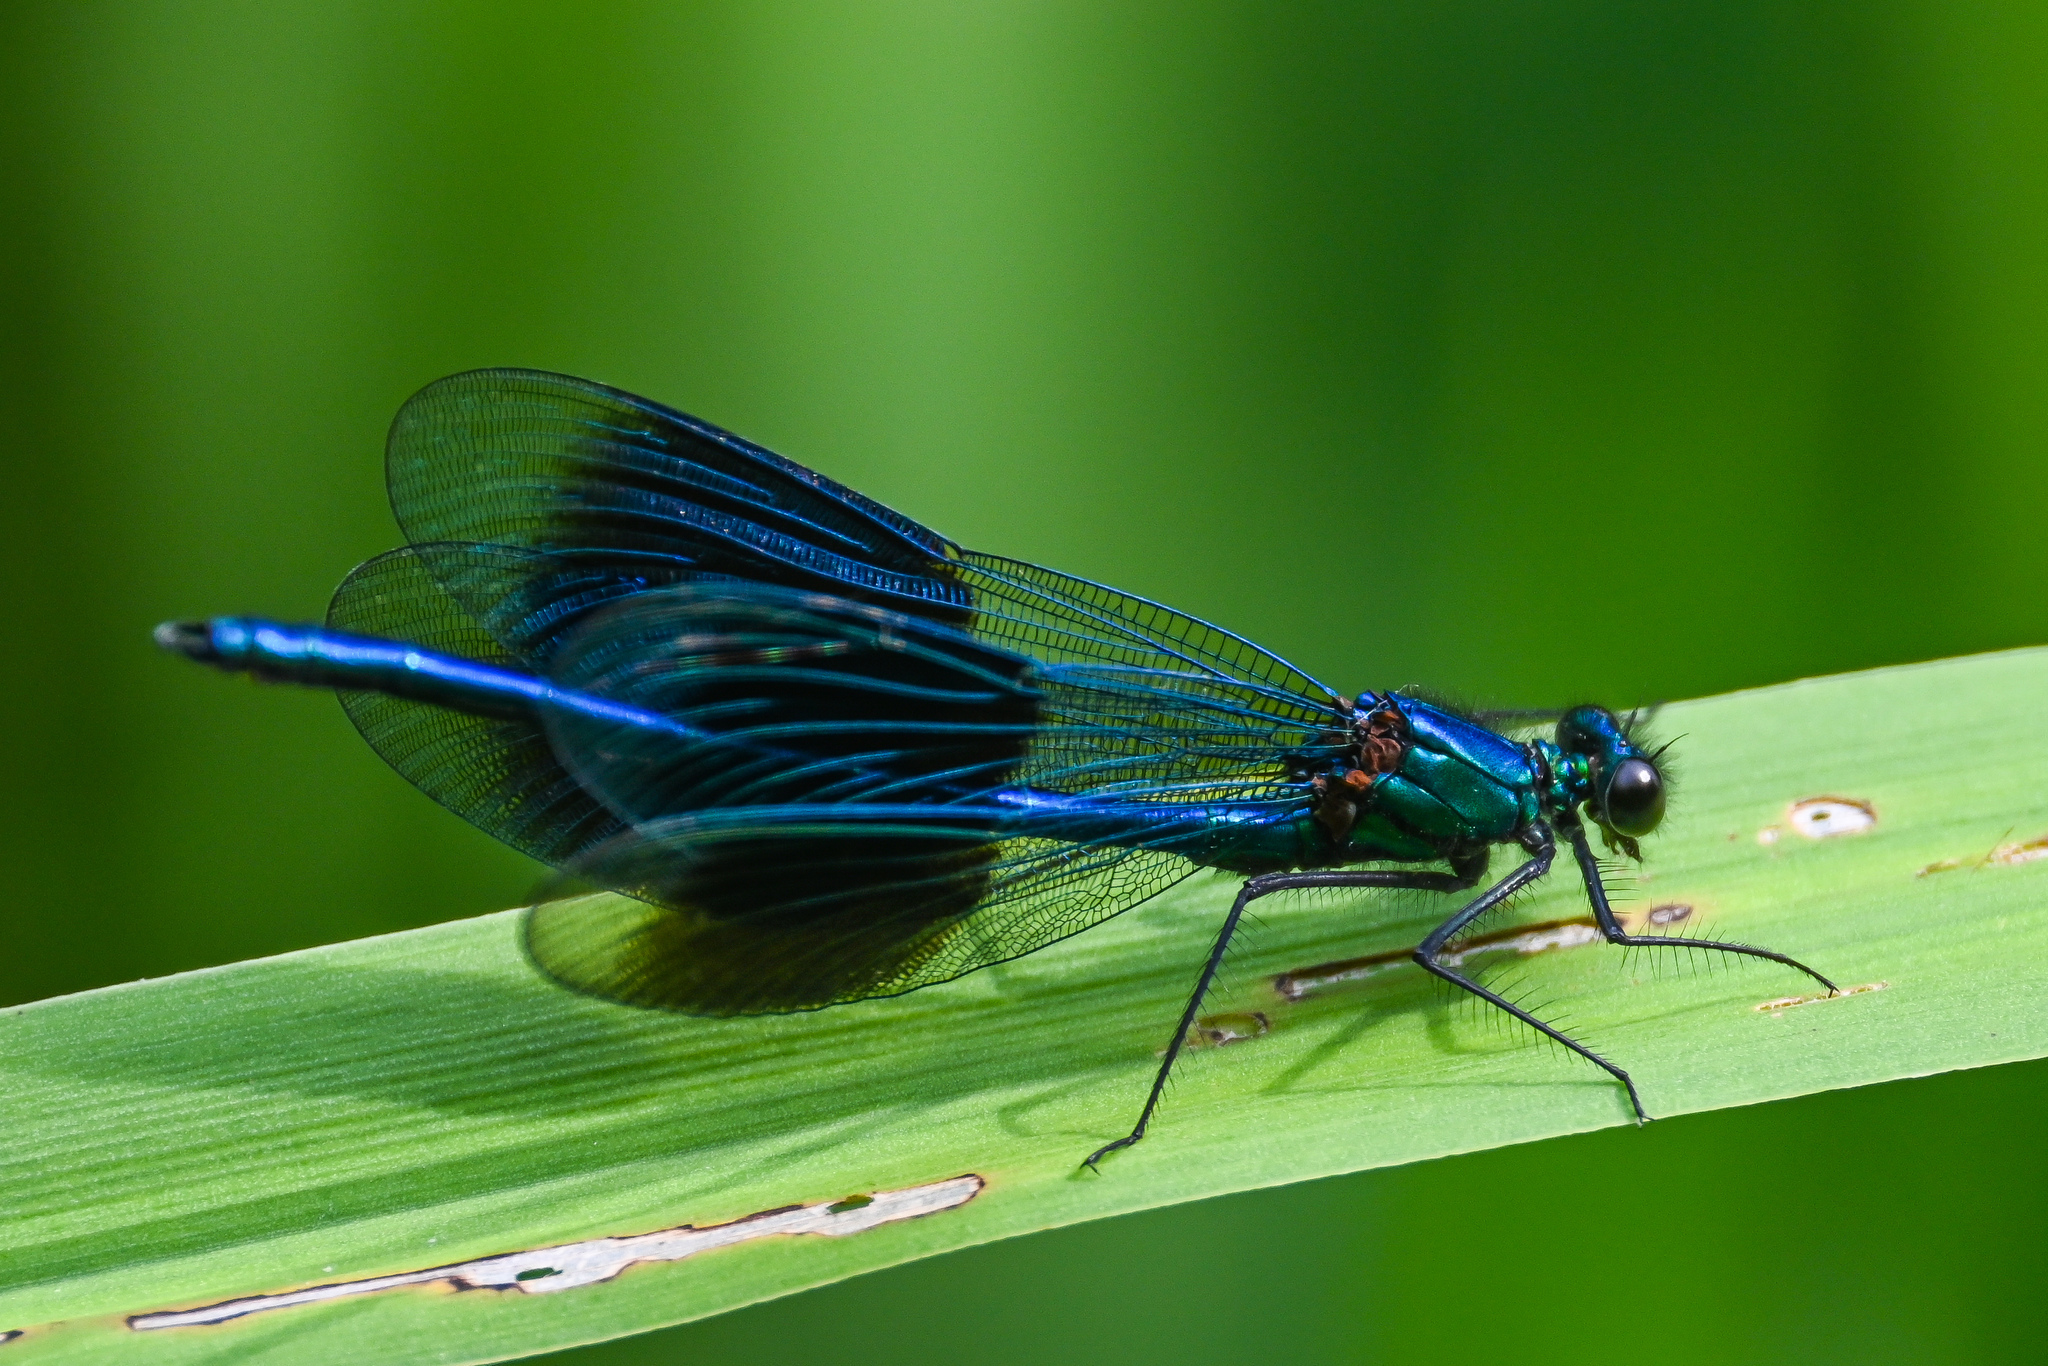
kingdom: Animalia
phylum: Arthropoda
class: Insecta
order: Odonata
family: Calopterygidae
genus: Calopteryx
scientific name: Calopteryx splendens
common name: Banded demoiselle
